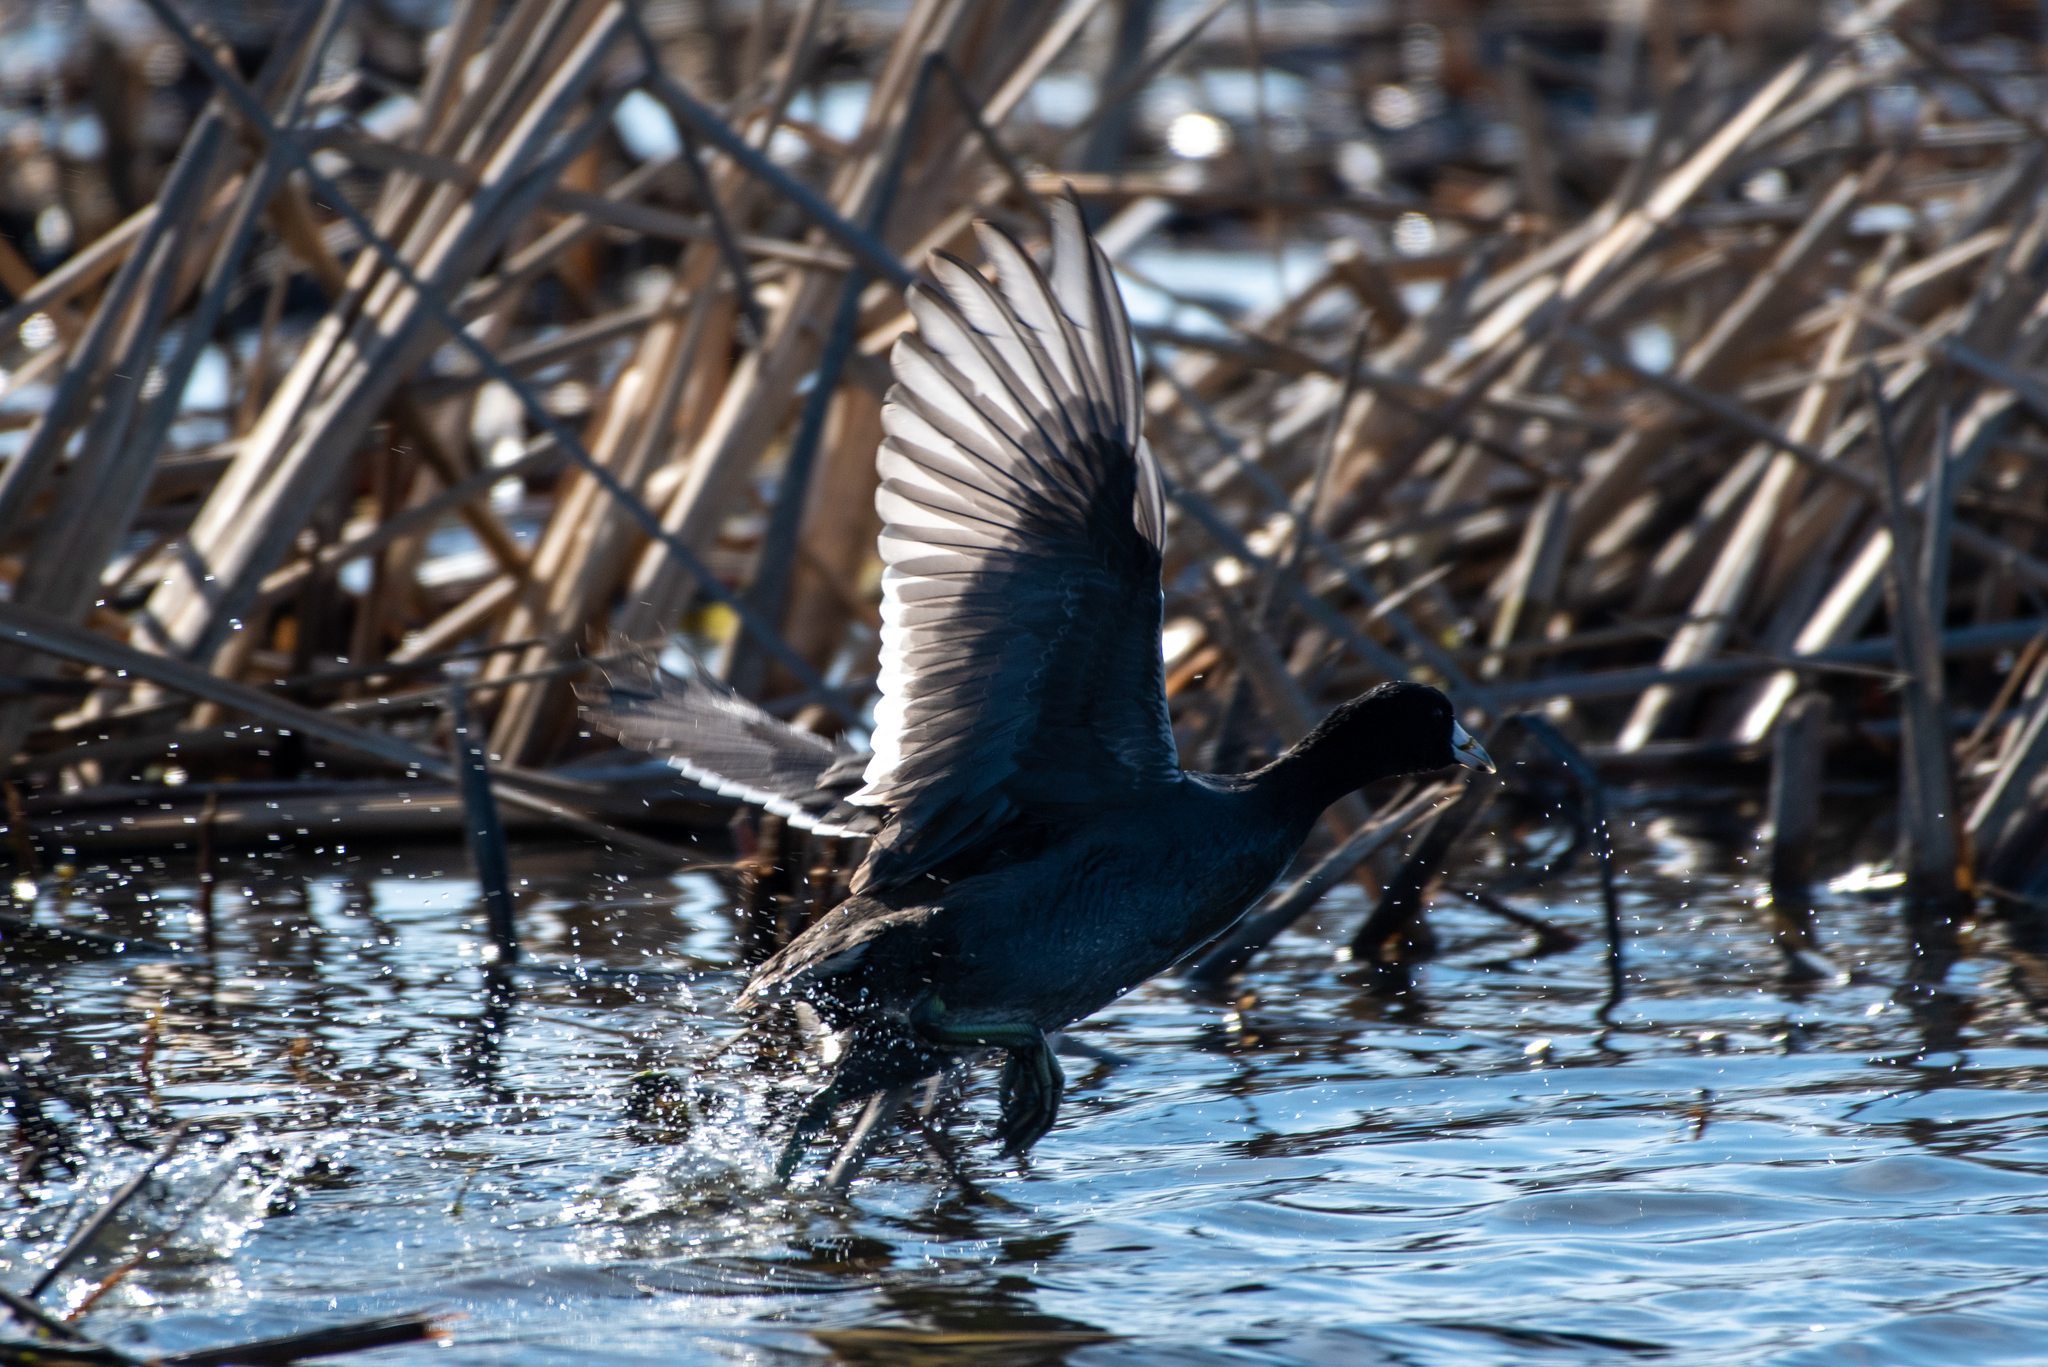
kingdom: Animalia
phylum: Chordata
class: Aves
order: Gruiformes
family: Rallidae
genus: Fulica
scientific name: Fulica americana
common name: American coot
